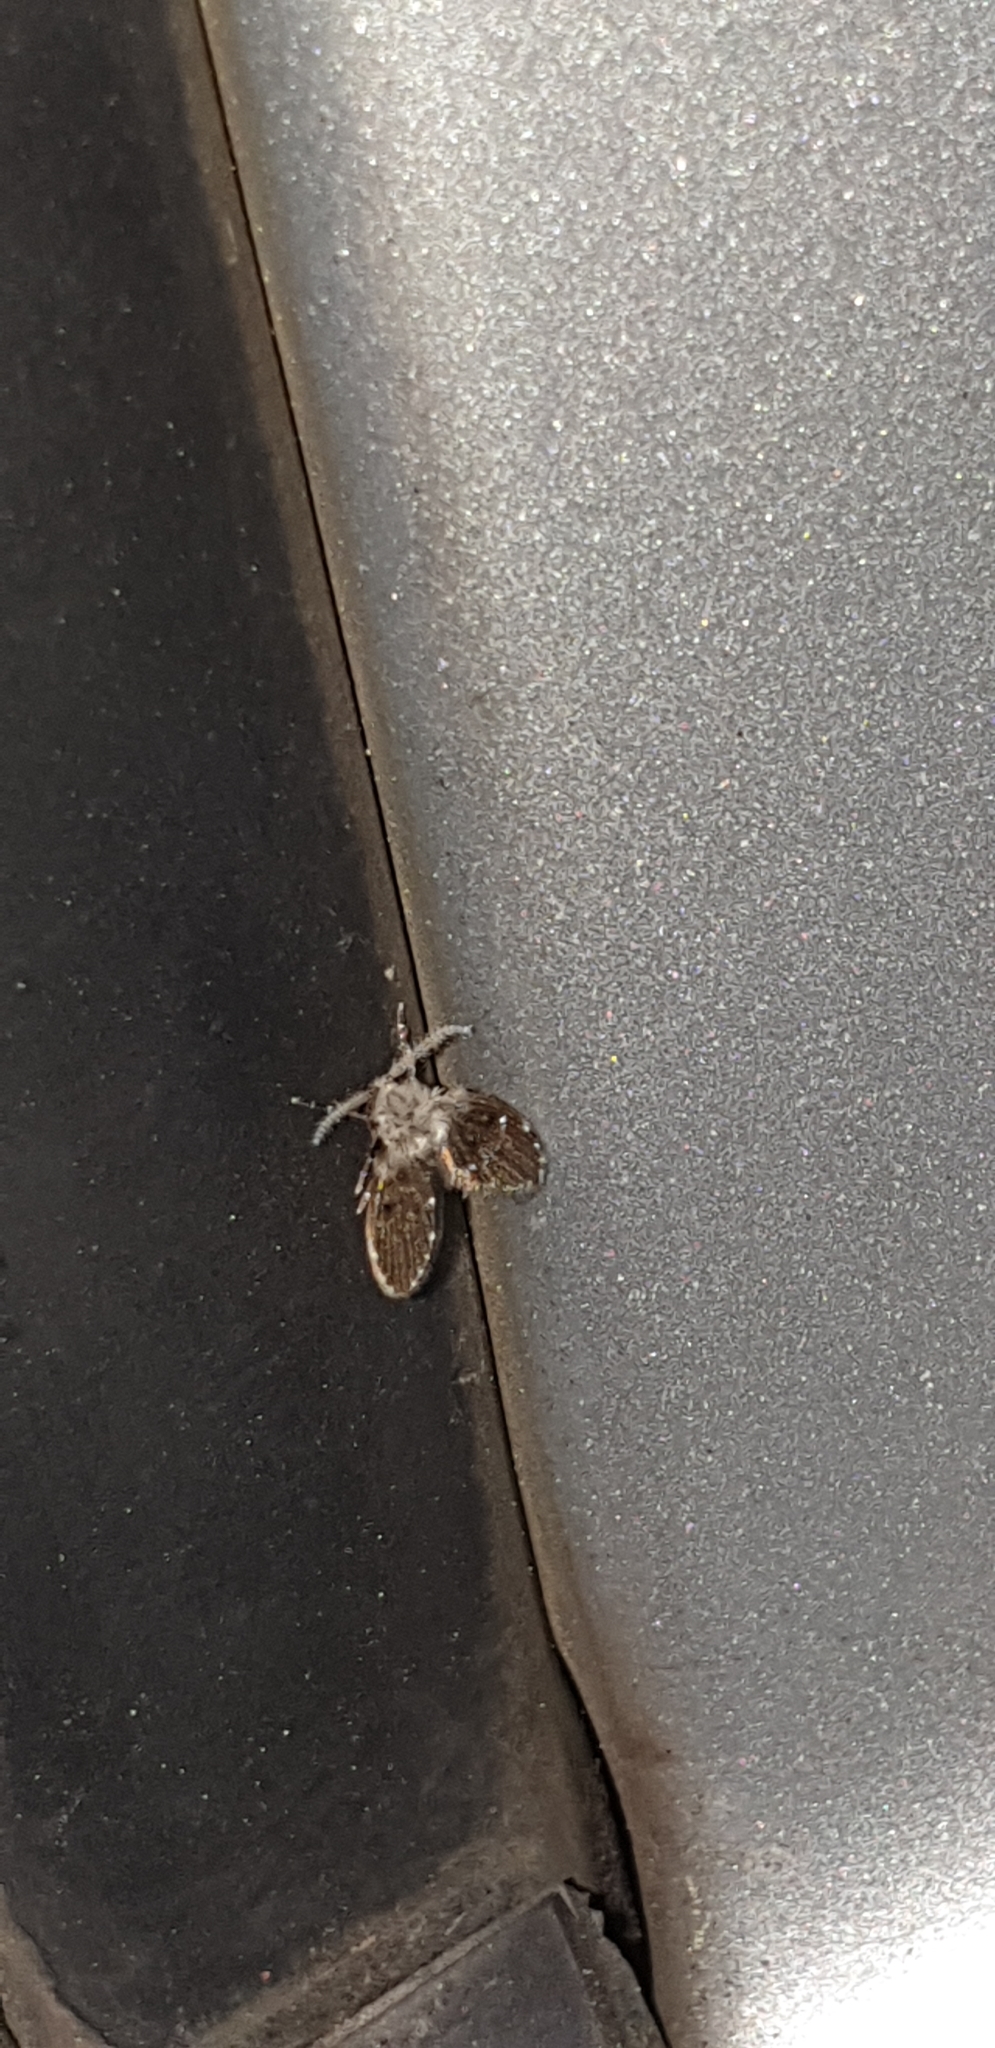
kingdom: Animalia
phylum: Arthropoda
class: Insecta
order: Diptera
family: Psychodidae
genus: Clogmia
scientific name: Clogmia albipunctatus
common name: White-spotted moth fly
